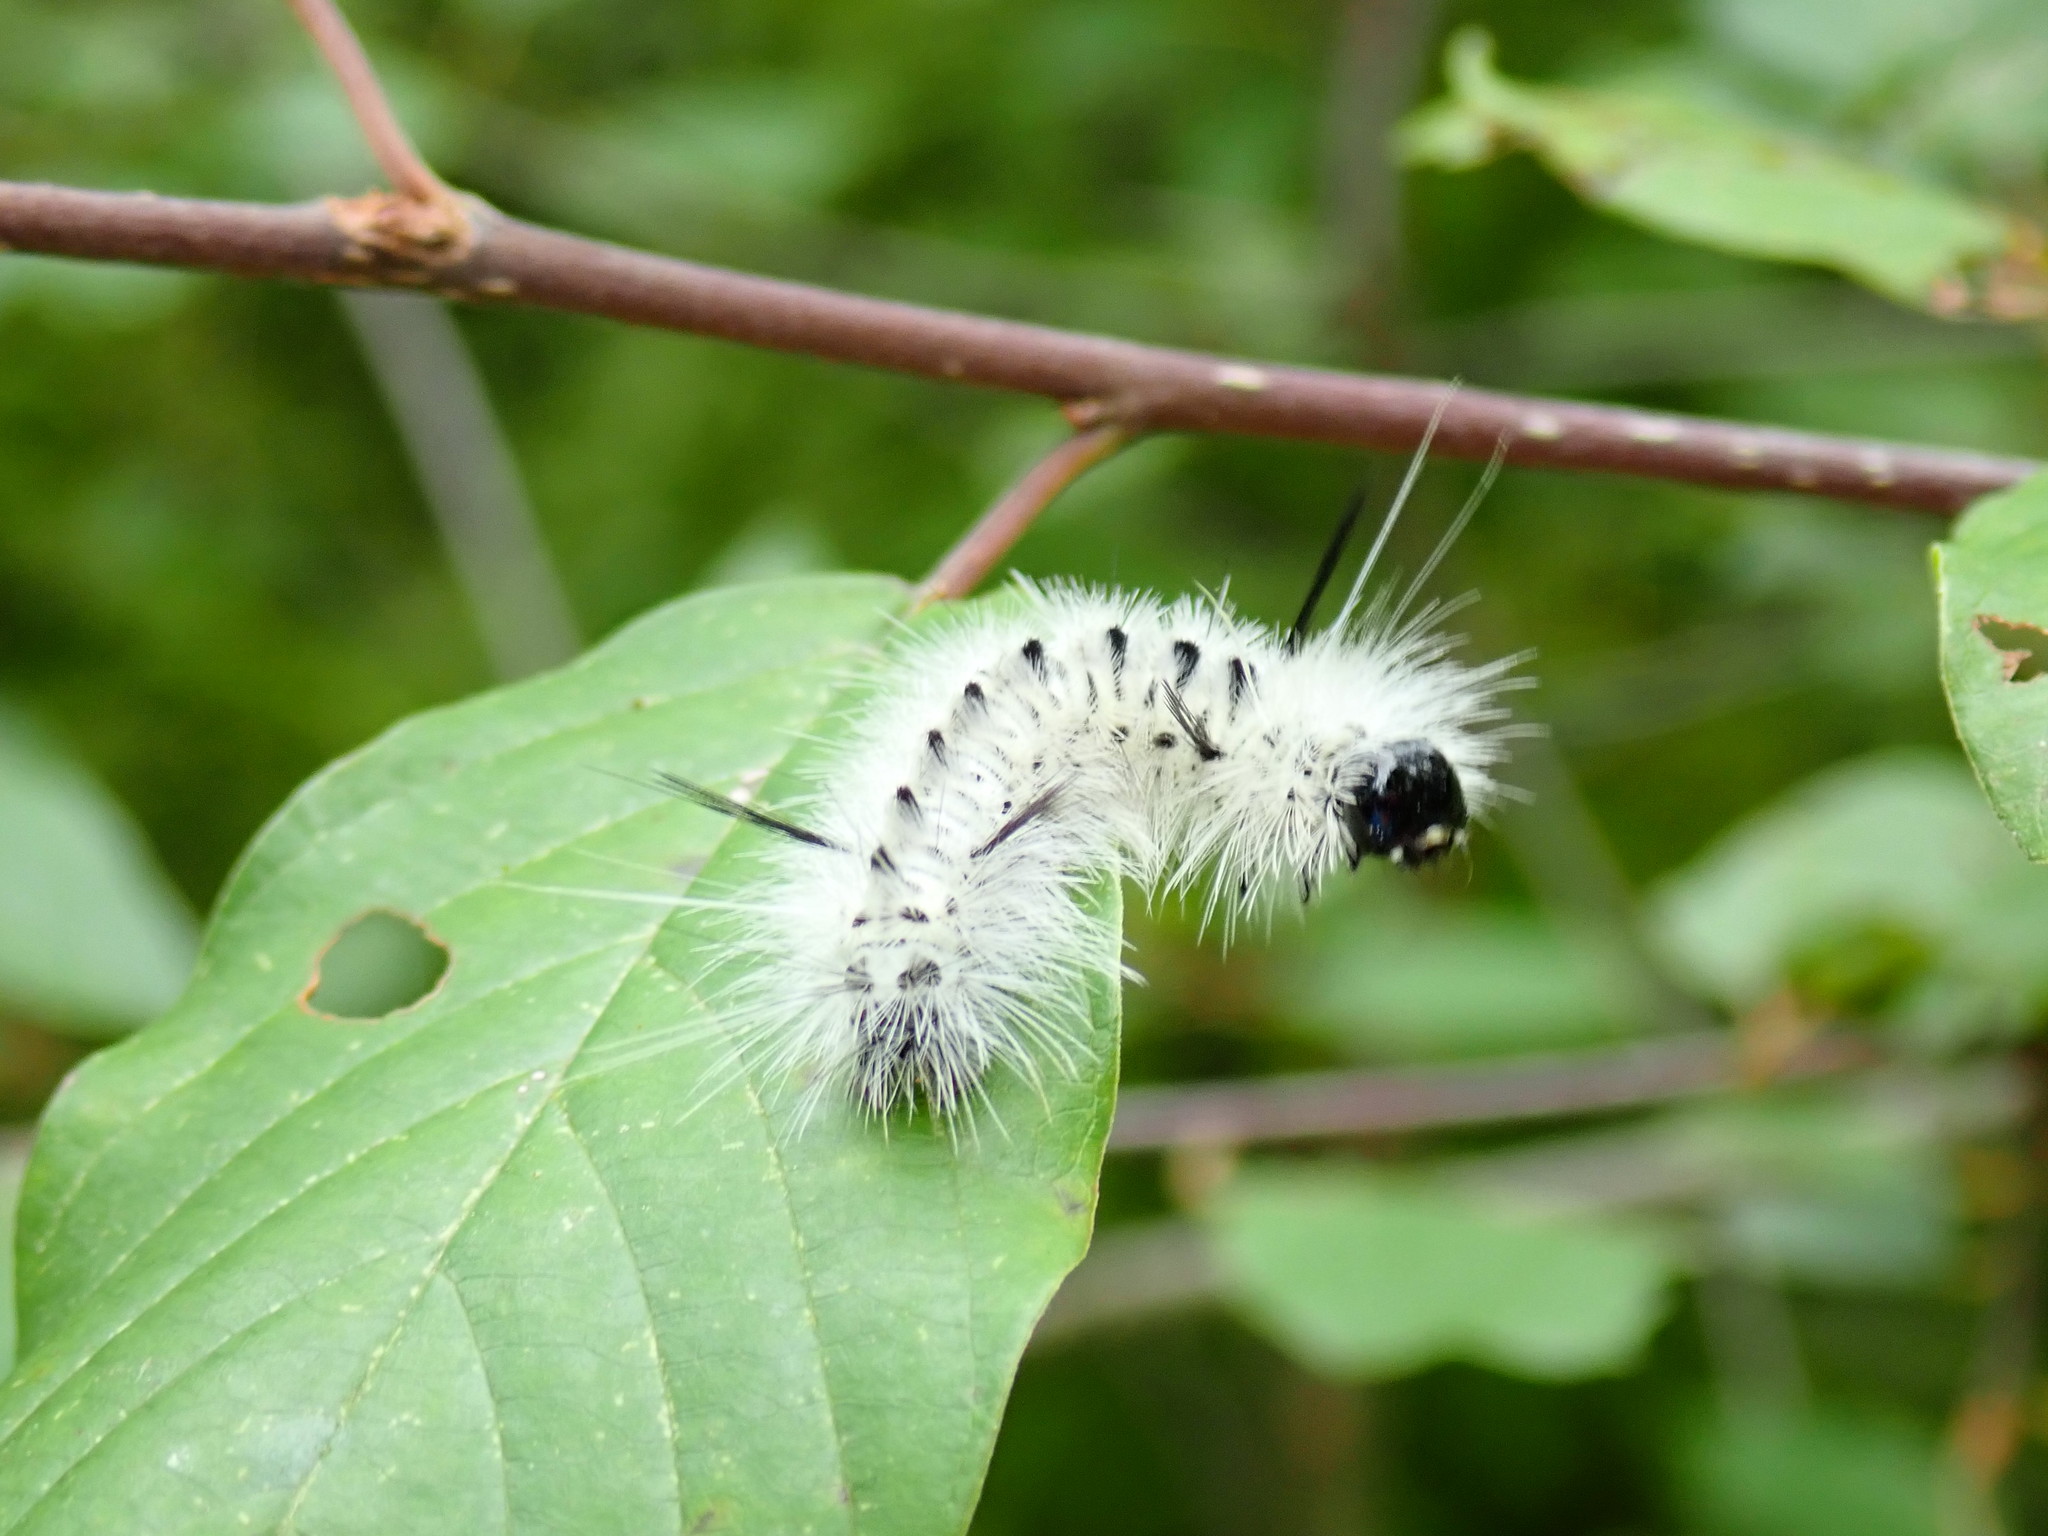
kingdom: Animalia
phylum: Arthropoda
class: Insecta
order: Lepidoptera
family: Erebidae
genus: Lophocampa
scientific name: Lophocampa caryae
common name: Hickory tussock moth
